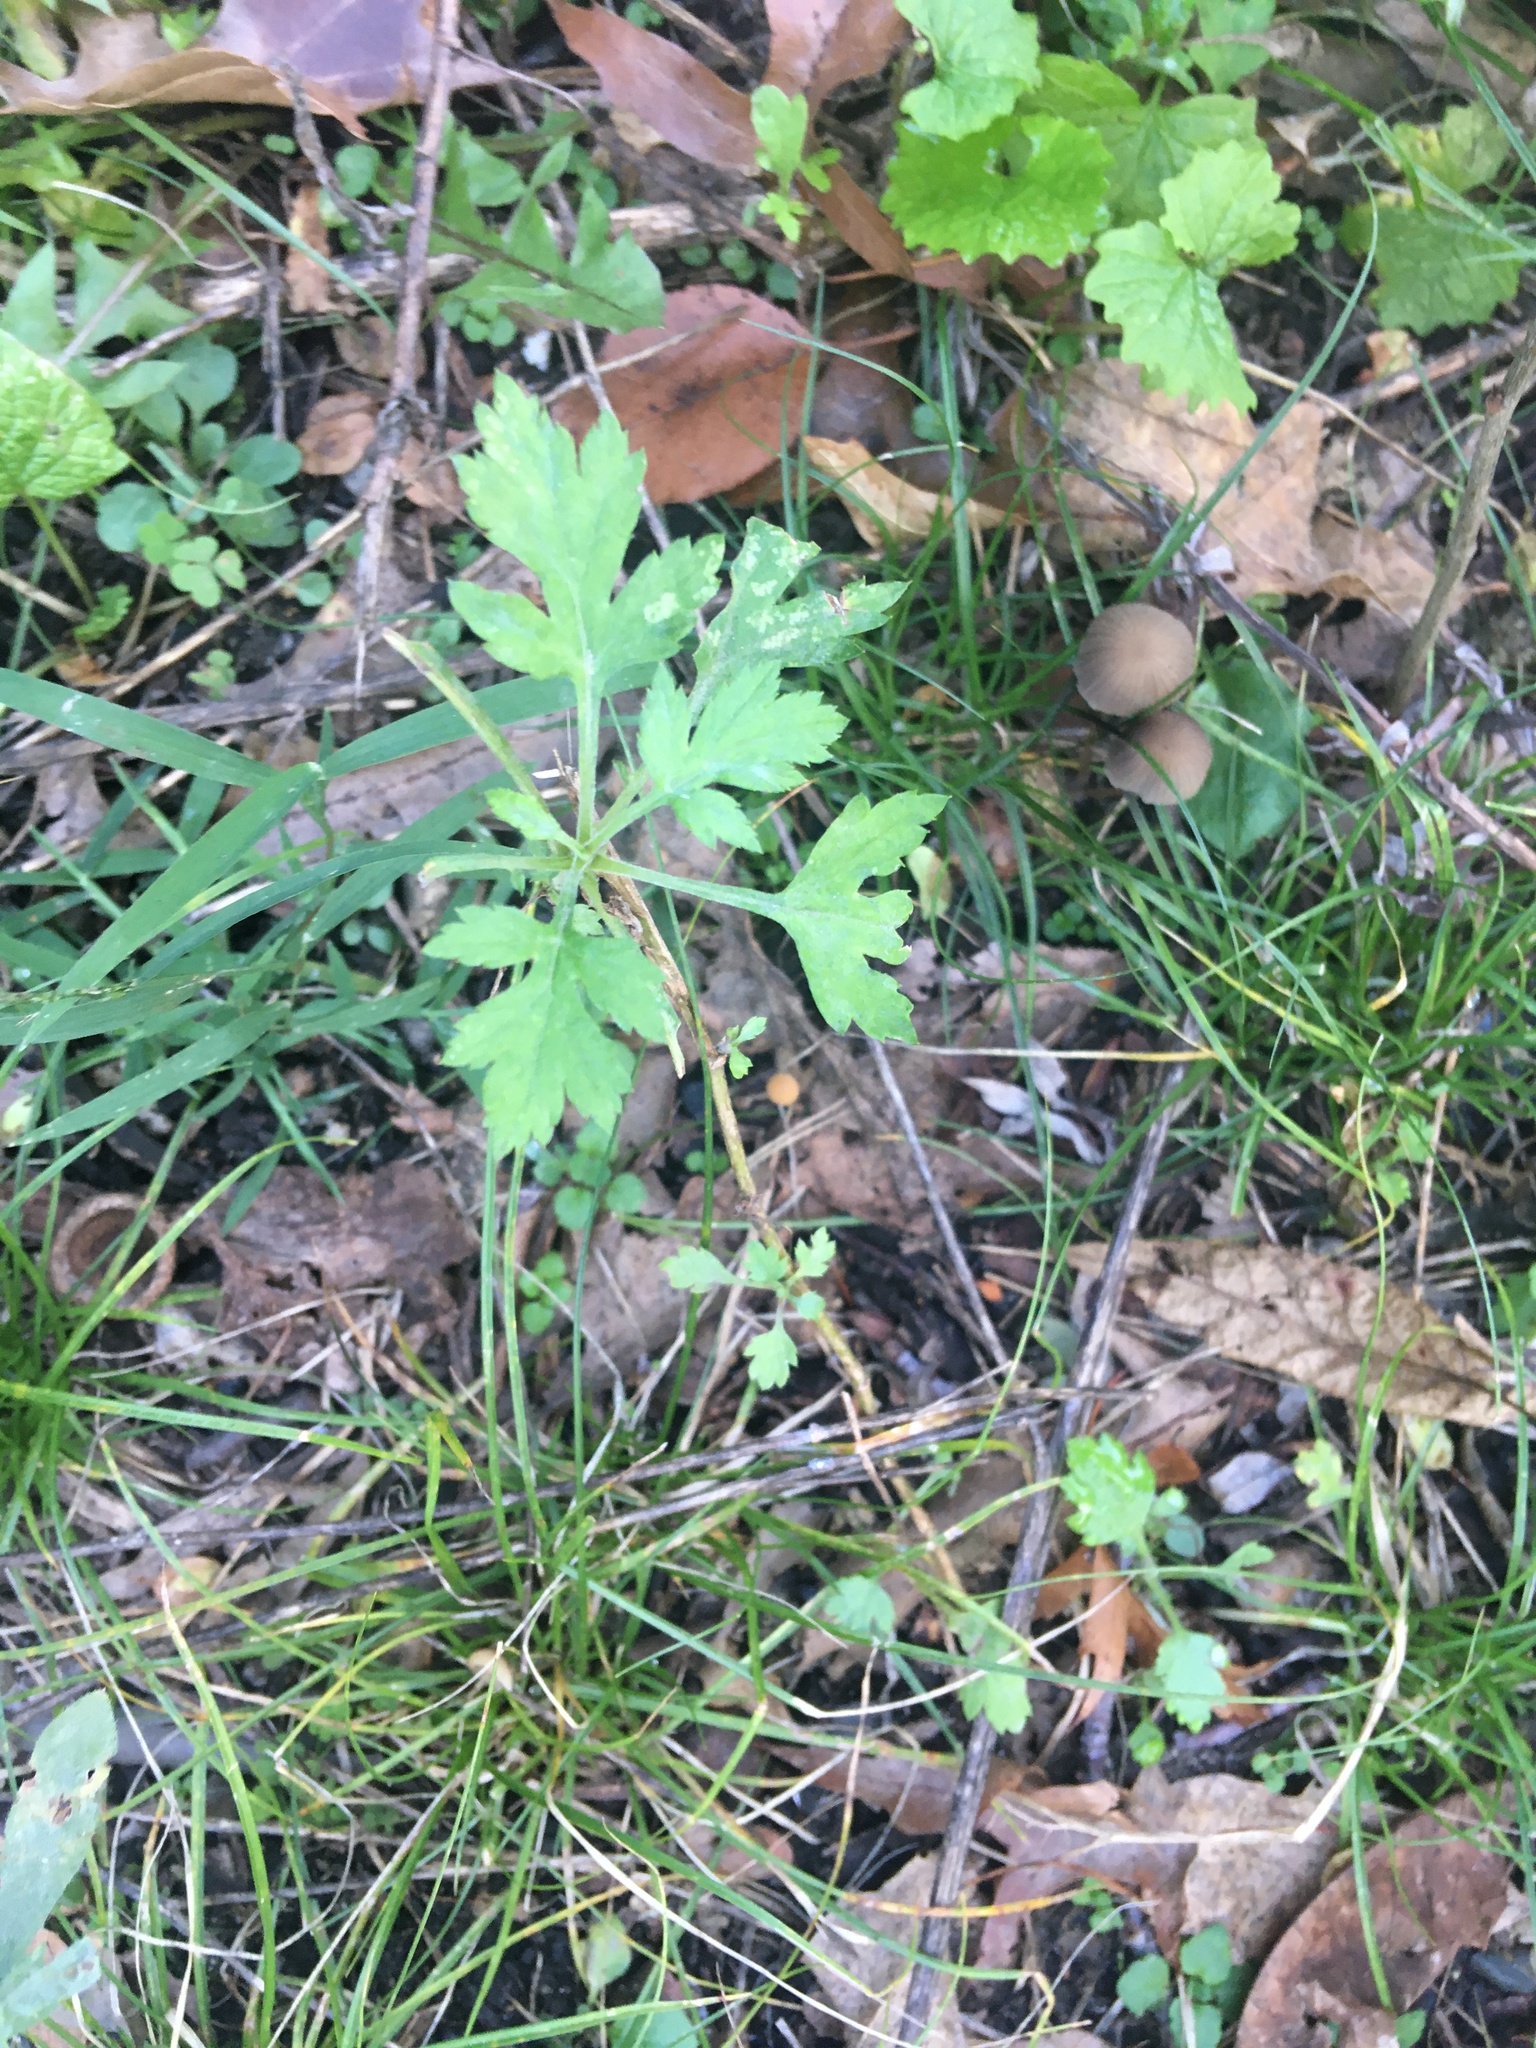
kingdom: Plantae
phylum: Tracheophyta
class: Magnoliopsida
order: Asterales
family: Asteraceae
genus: Artemisia
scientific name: Artemisia vulgaris
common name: Mugwort
